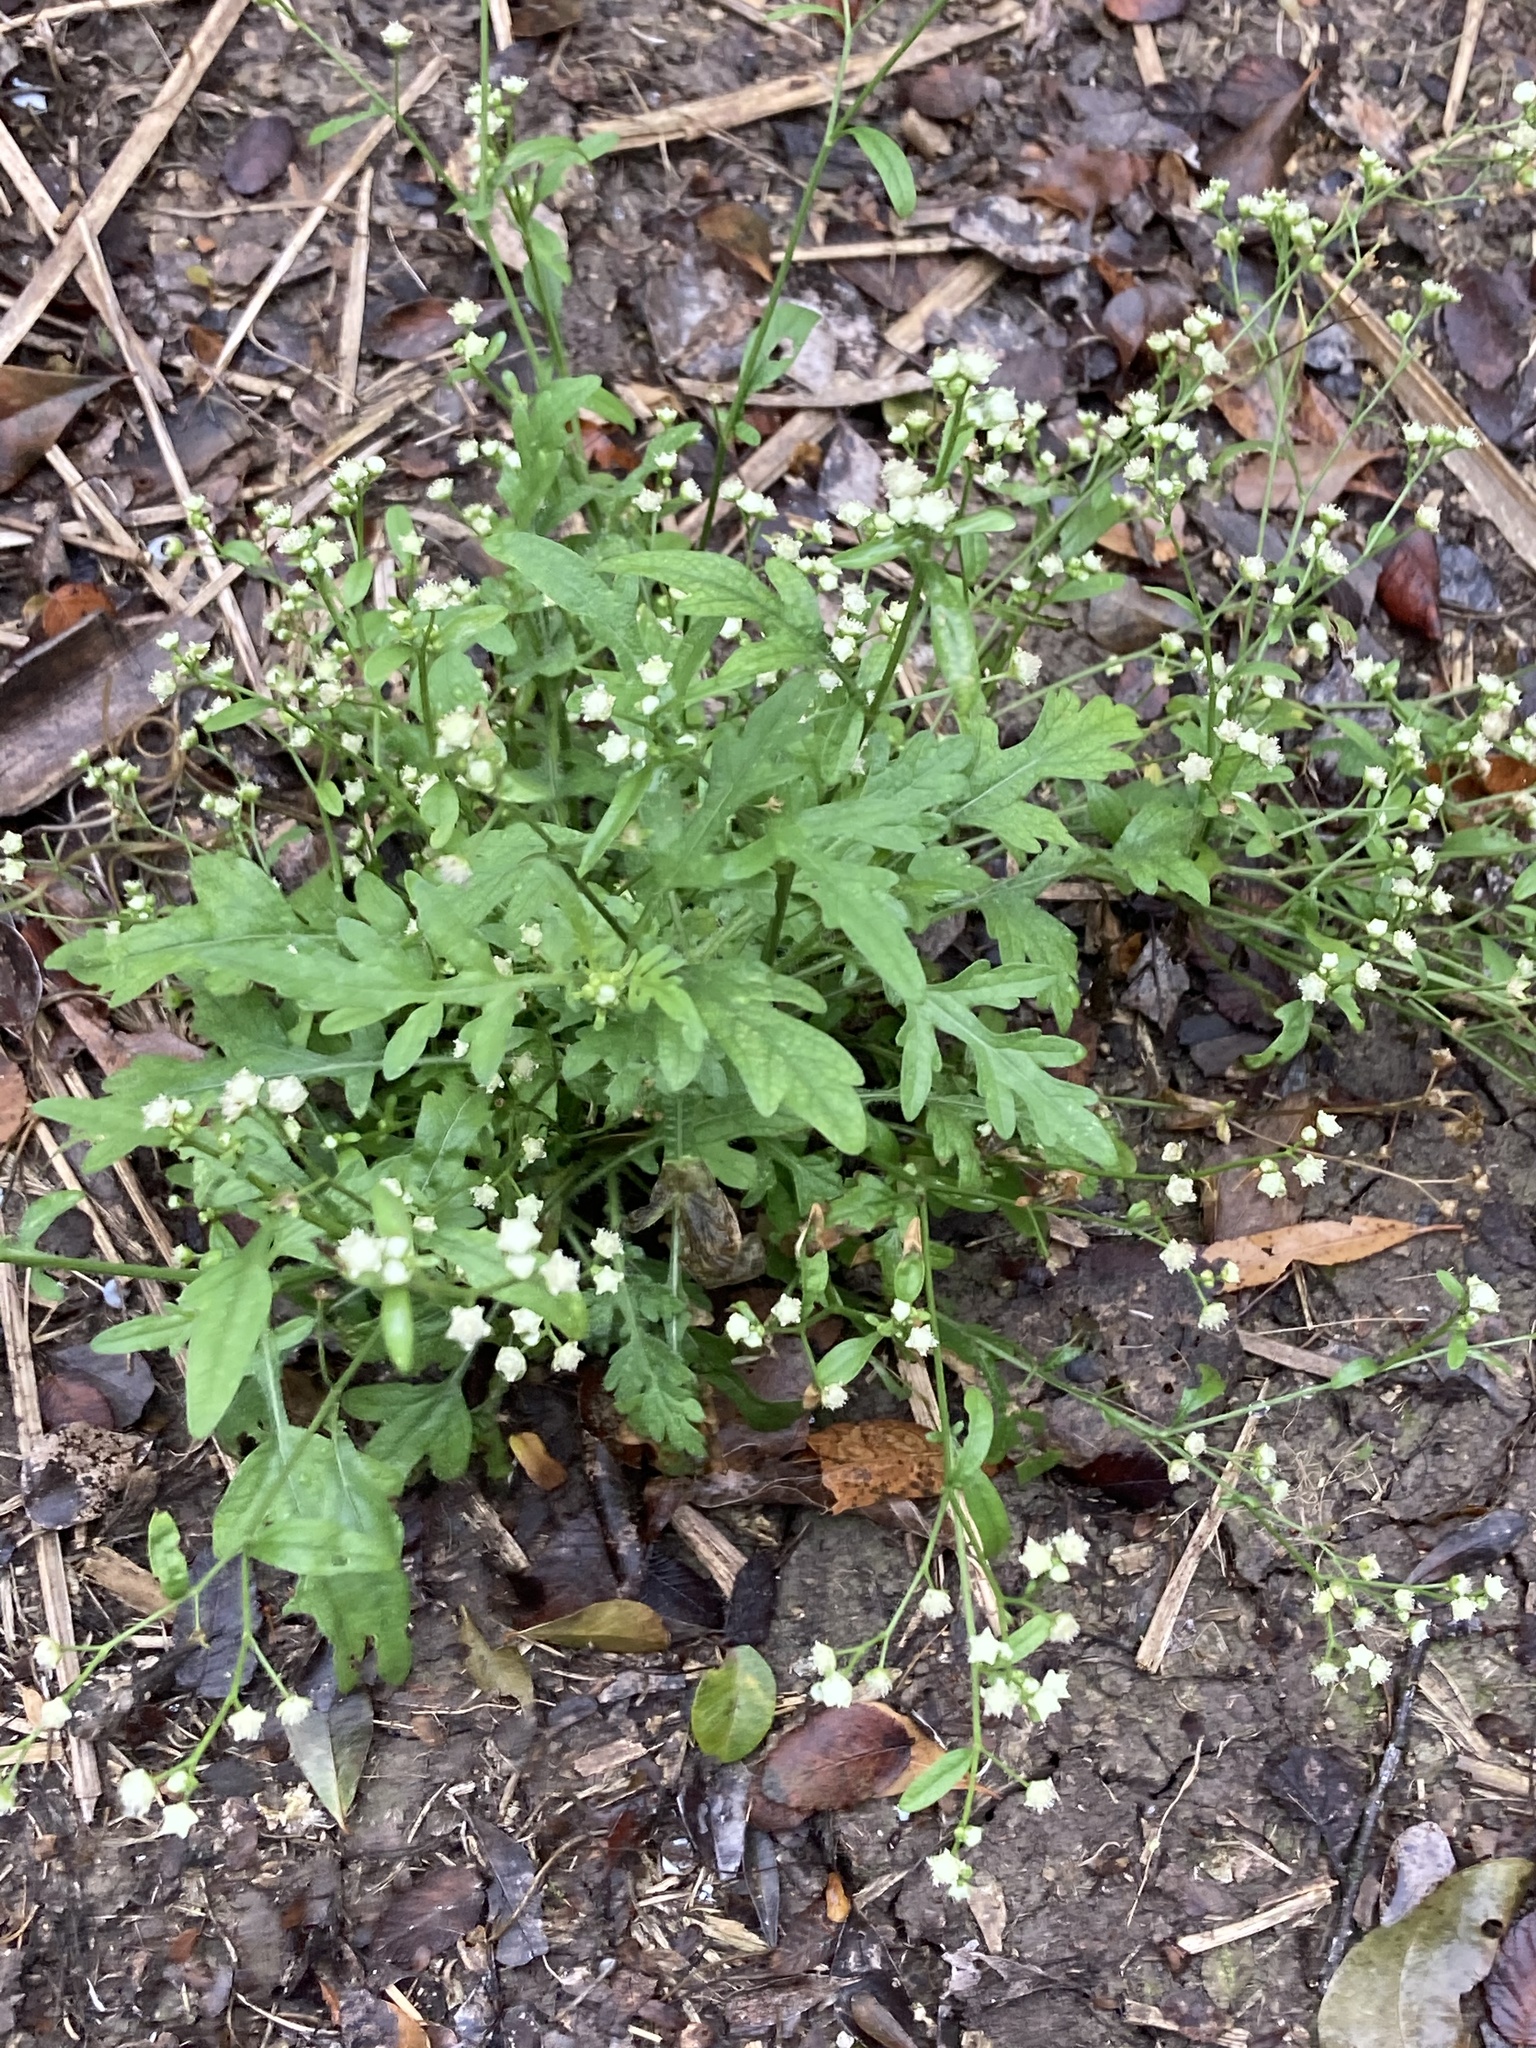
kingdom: Plantae
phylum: Tracheophyta
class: Magnoliopsida
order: Asterales
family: Asteraceae
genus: Parthenium
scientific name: Parthenium hysterophorus
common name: Santa maria feverfew
